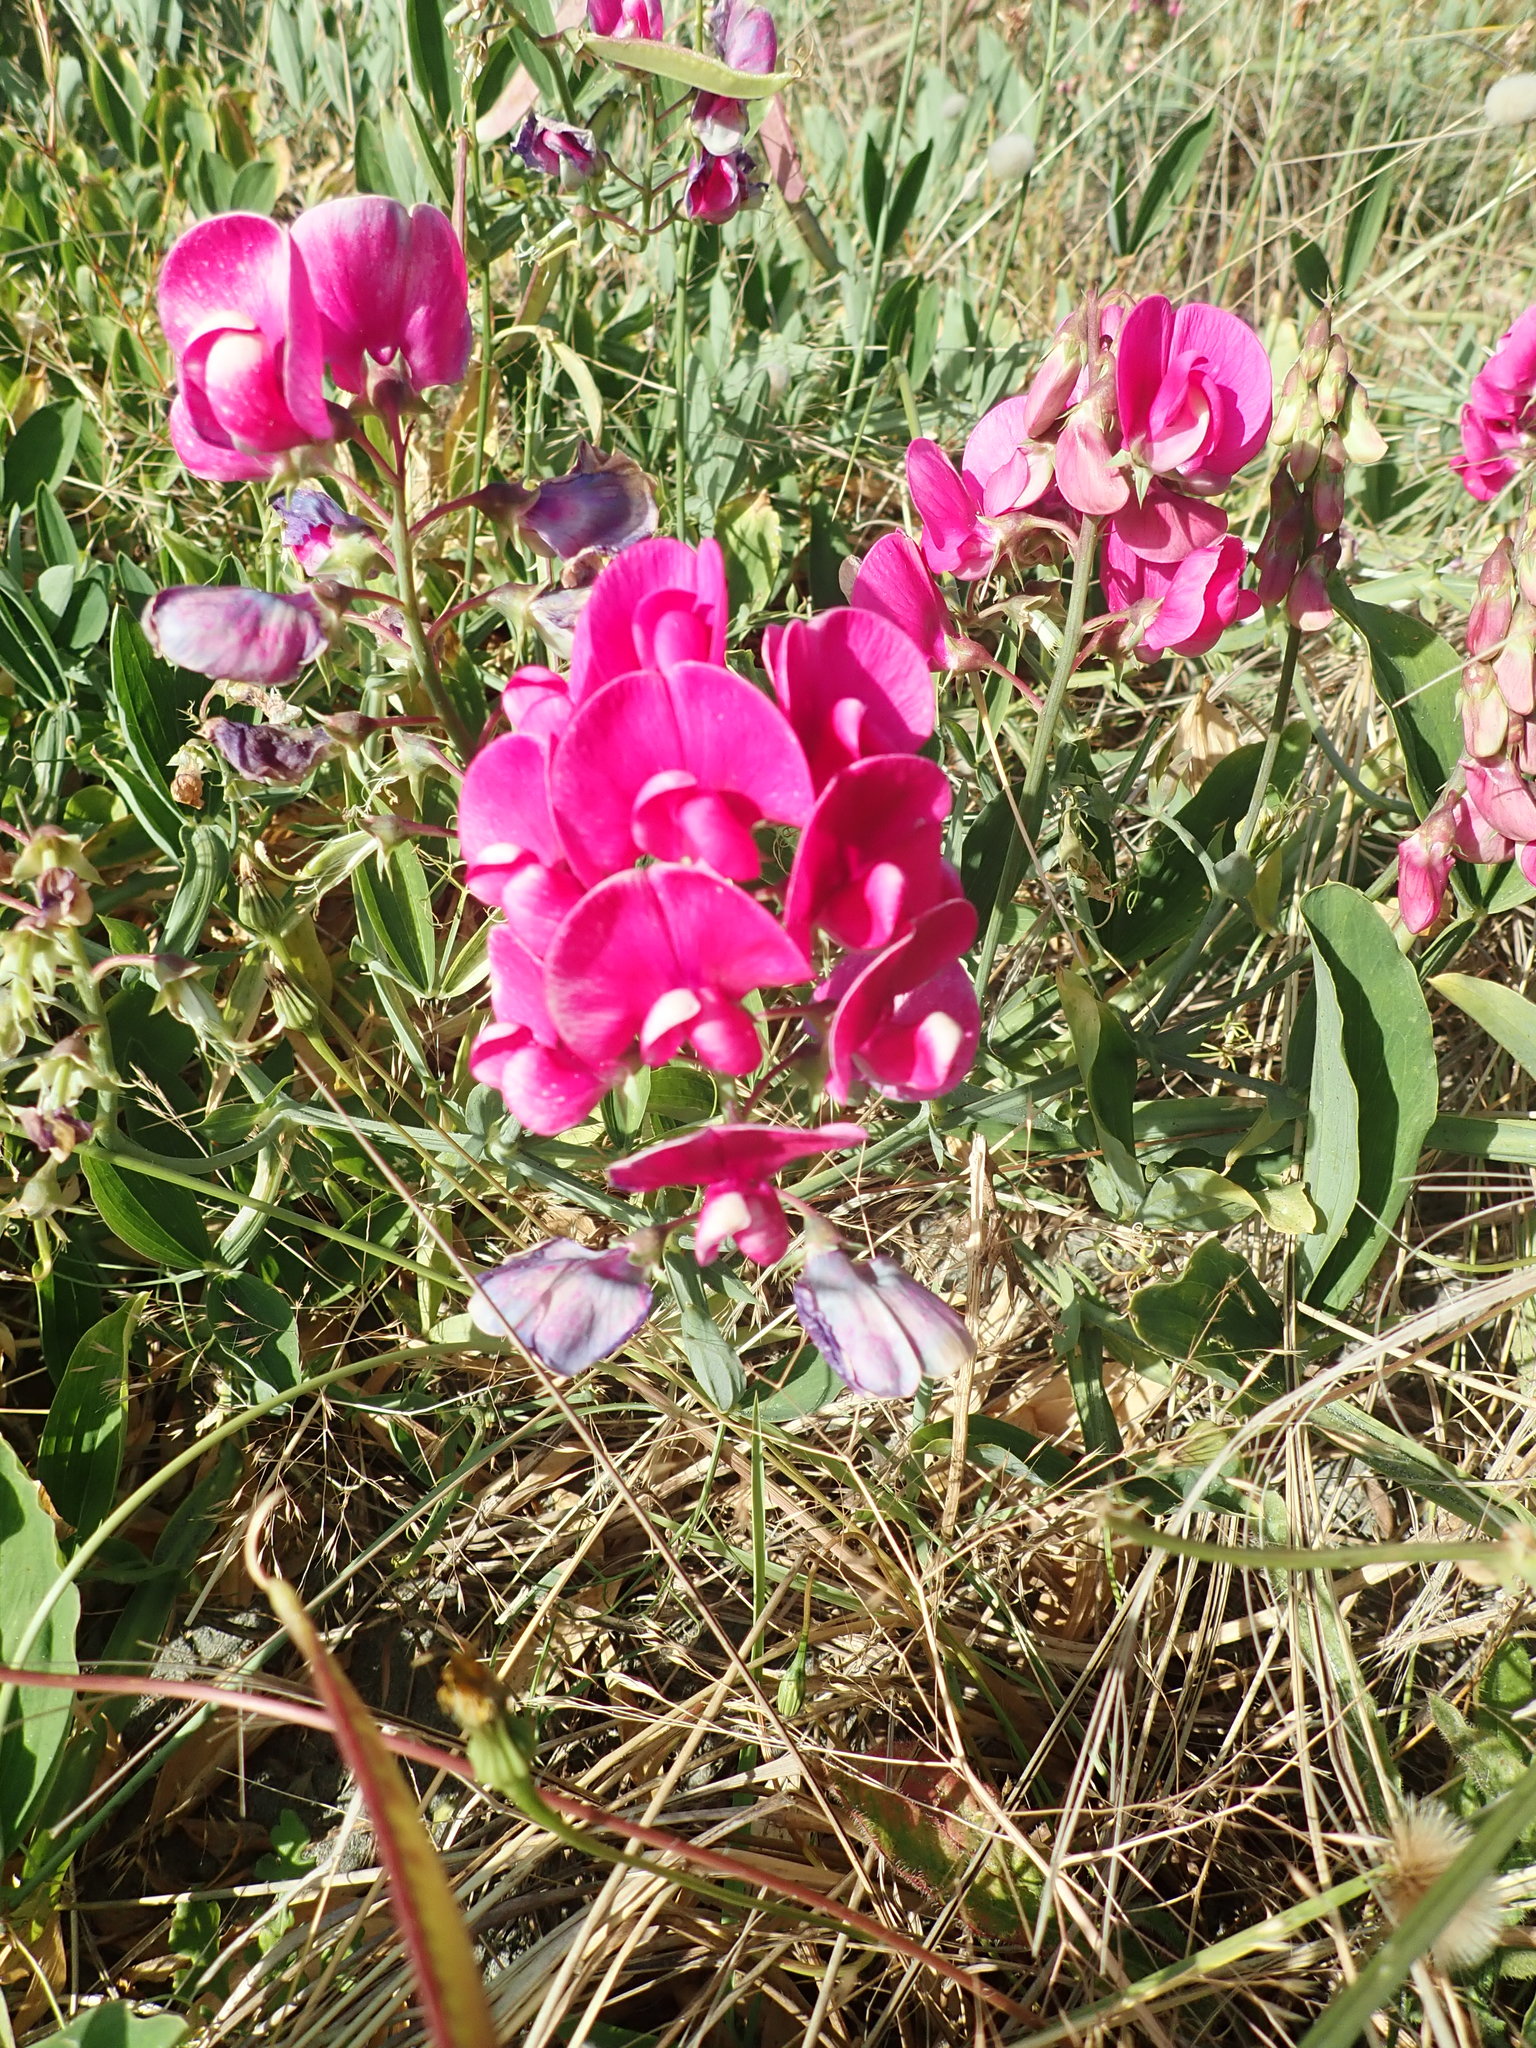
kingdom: Plantae
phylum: Tracheophyta
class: Magnoliopsida
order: Fabales
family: Fabaceae
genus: Lathyrus
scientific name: Lathyrus latifolius
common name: Perennial pea
